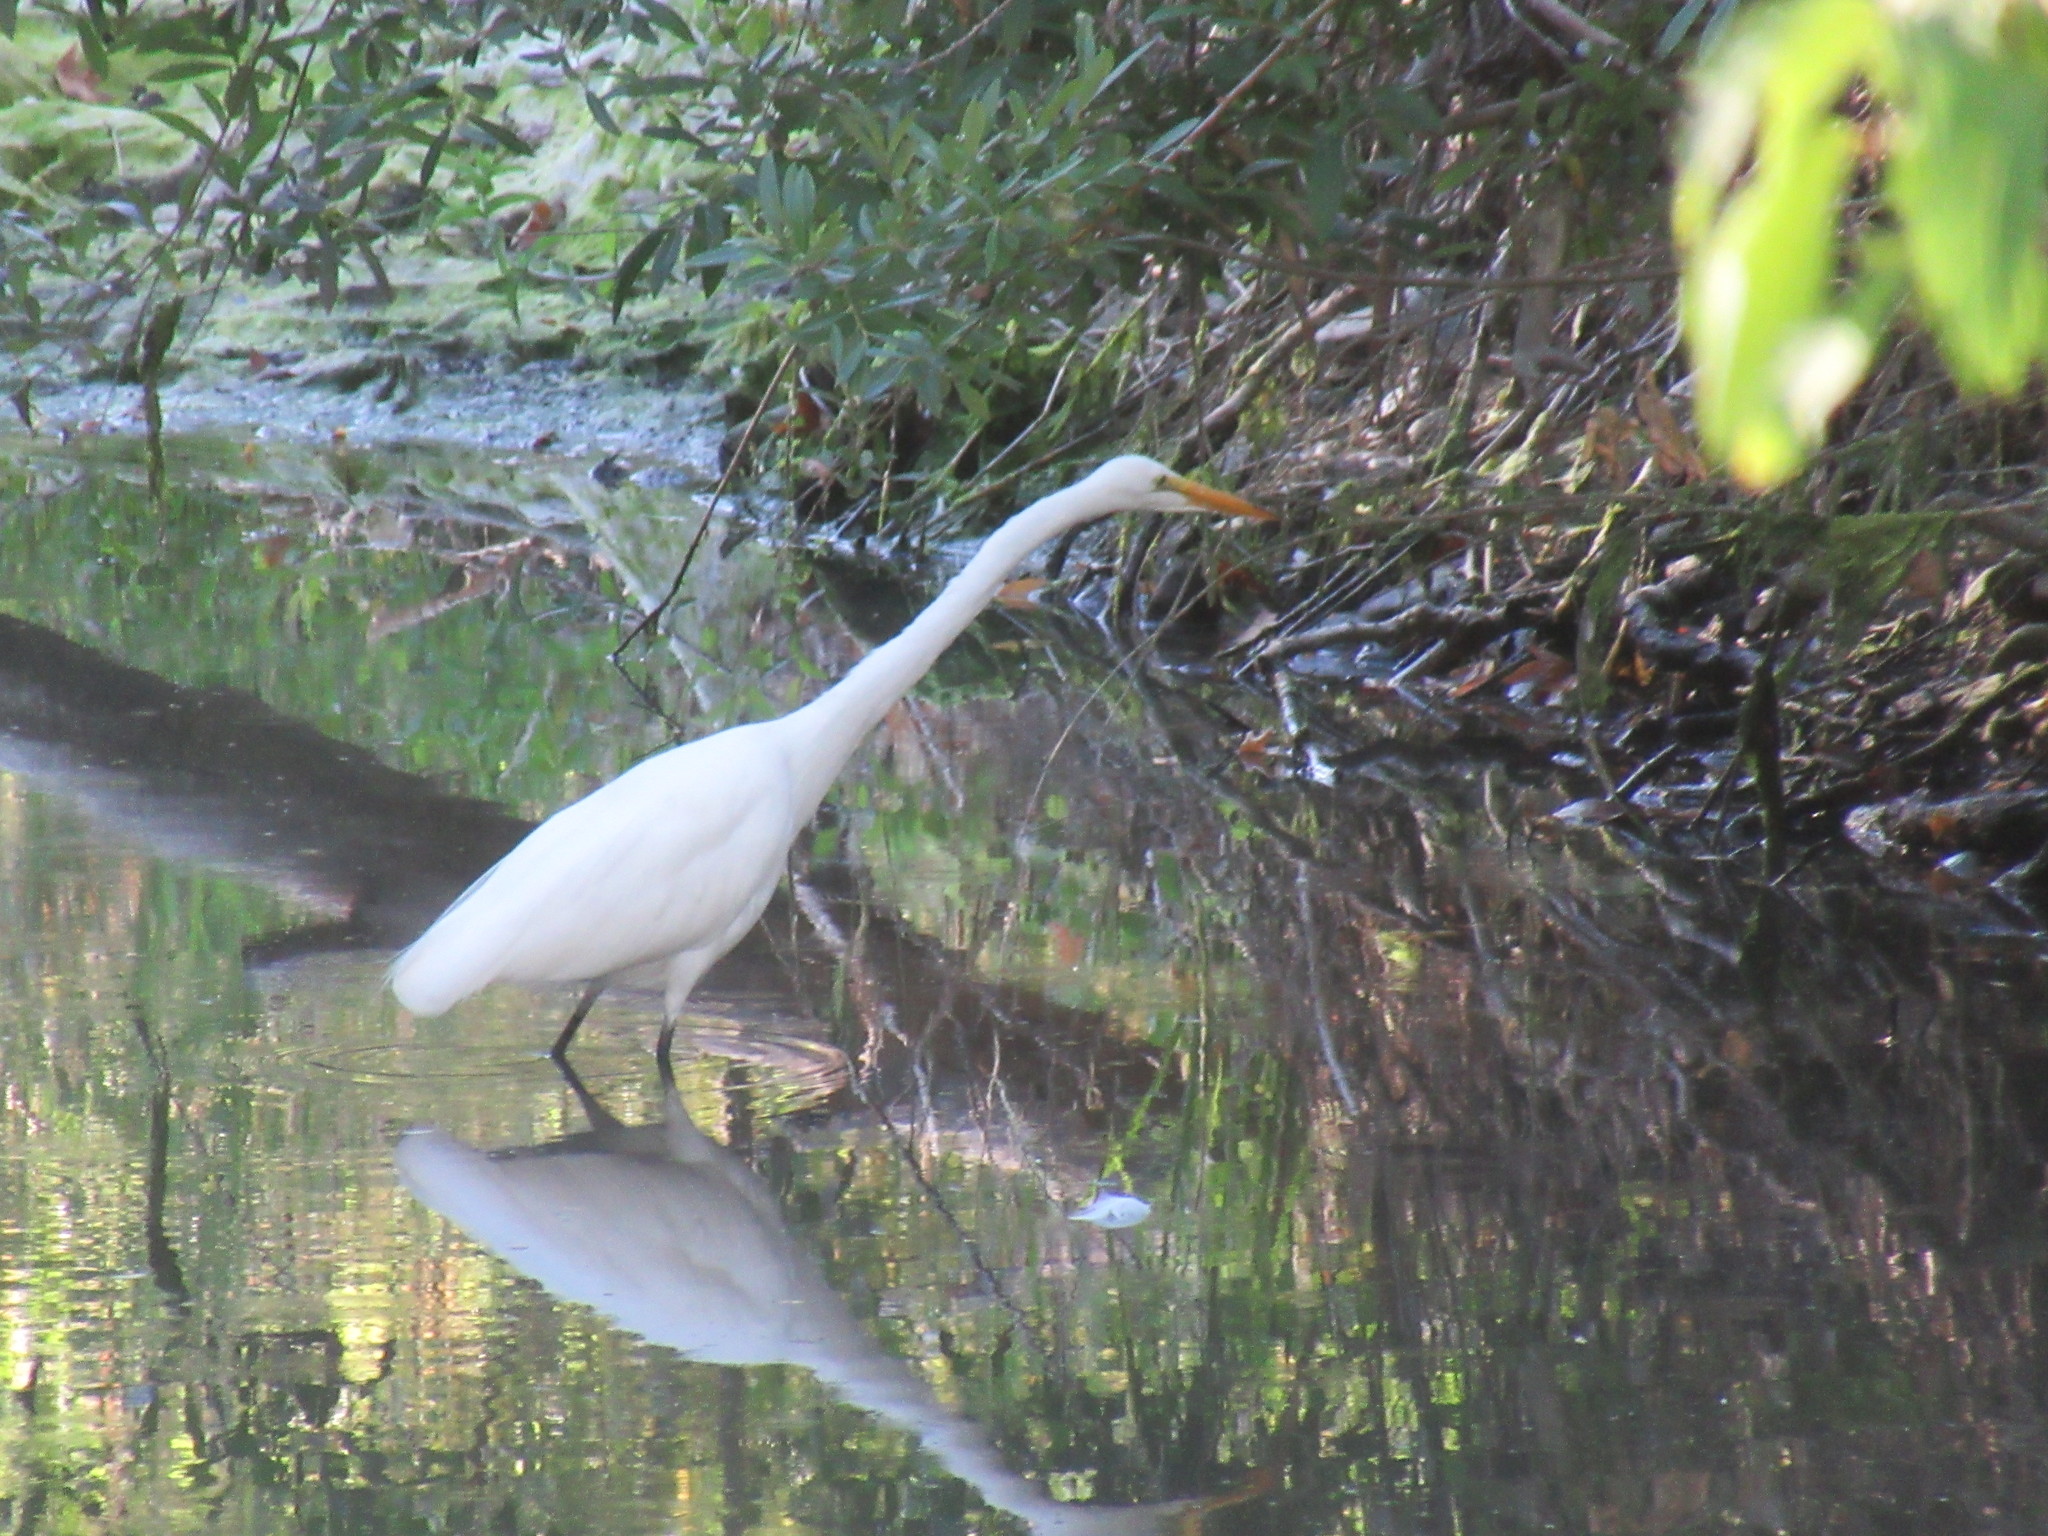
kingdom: Animalia
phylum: Chordata
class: Aves
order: Pelecaniformes
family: Ardeidae
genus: Ardea
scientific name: Ardea alba
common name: Great egret
